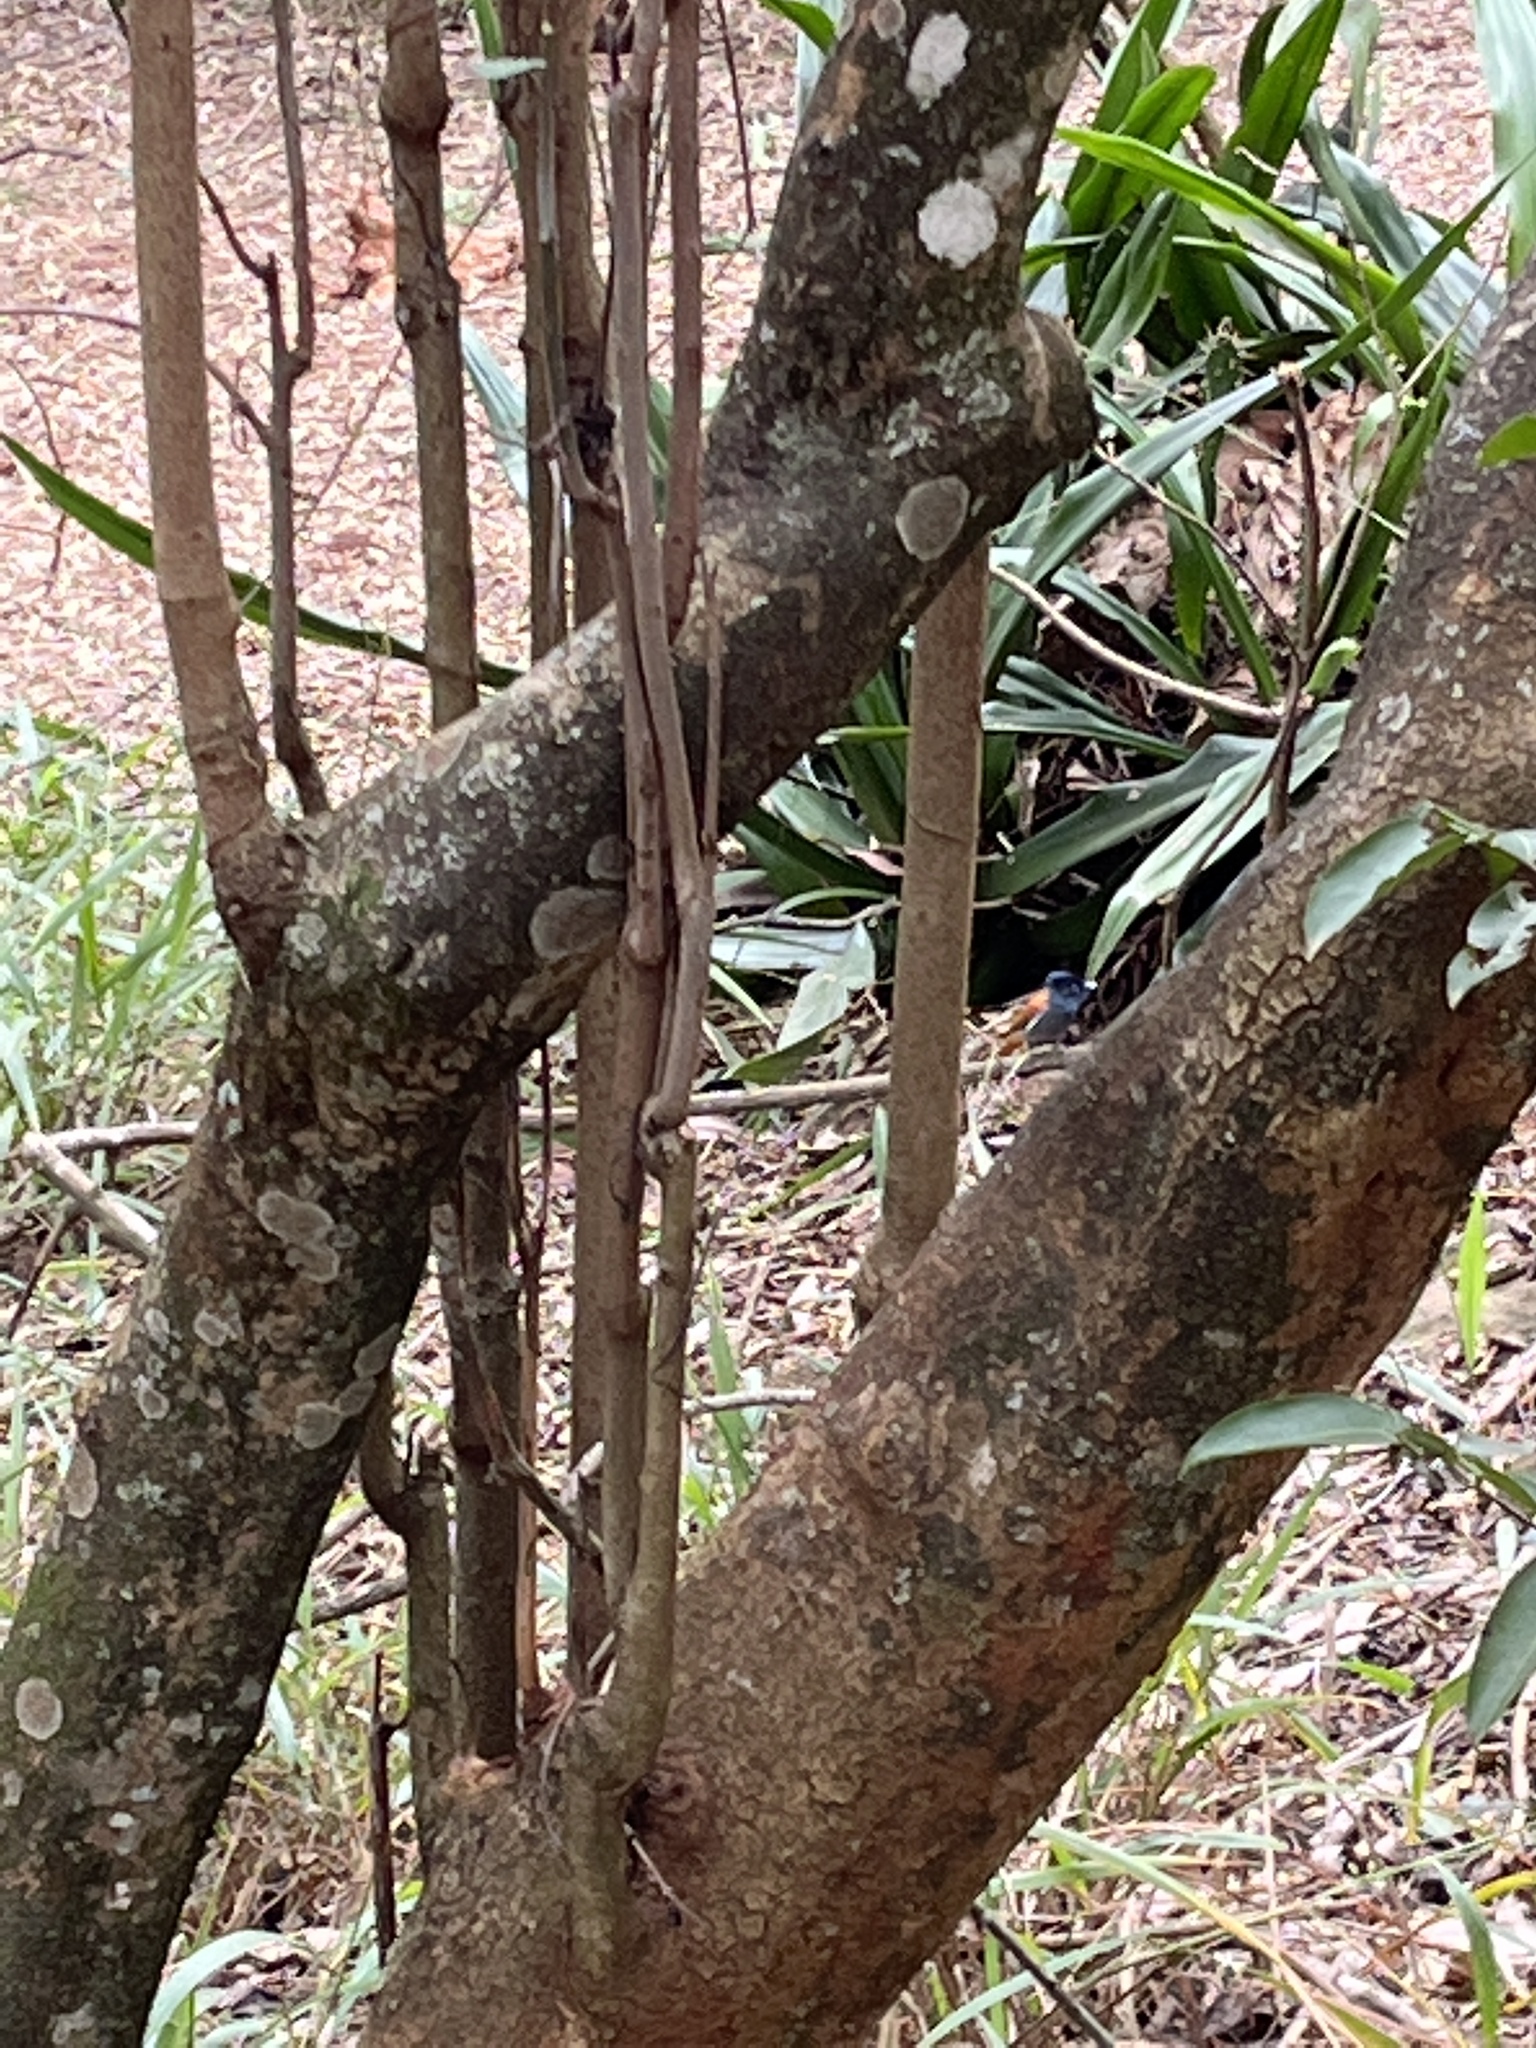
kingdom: Animalia
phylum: Chordata
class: Aves
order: Passeriformes
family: Monarchidae
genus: Terpsiphone
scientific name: Terpsiphone viridis
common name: African paradise flycatcher
